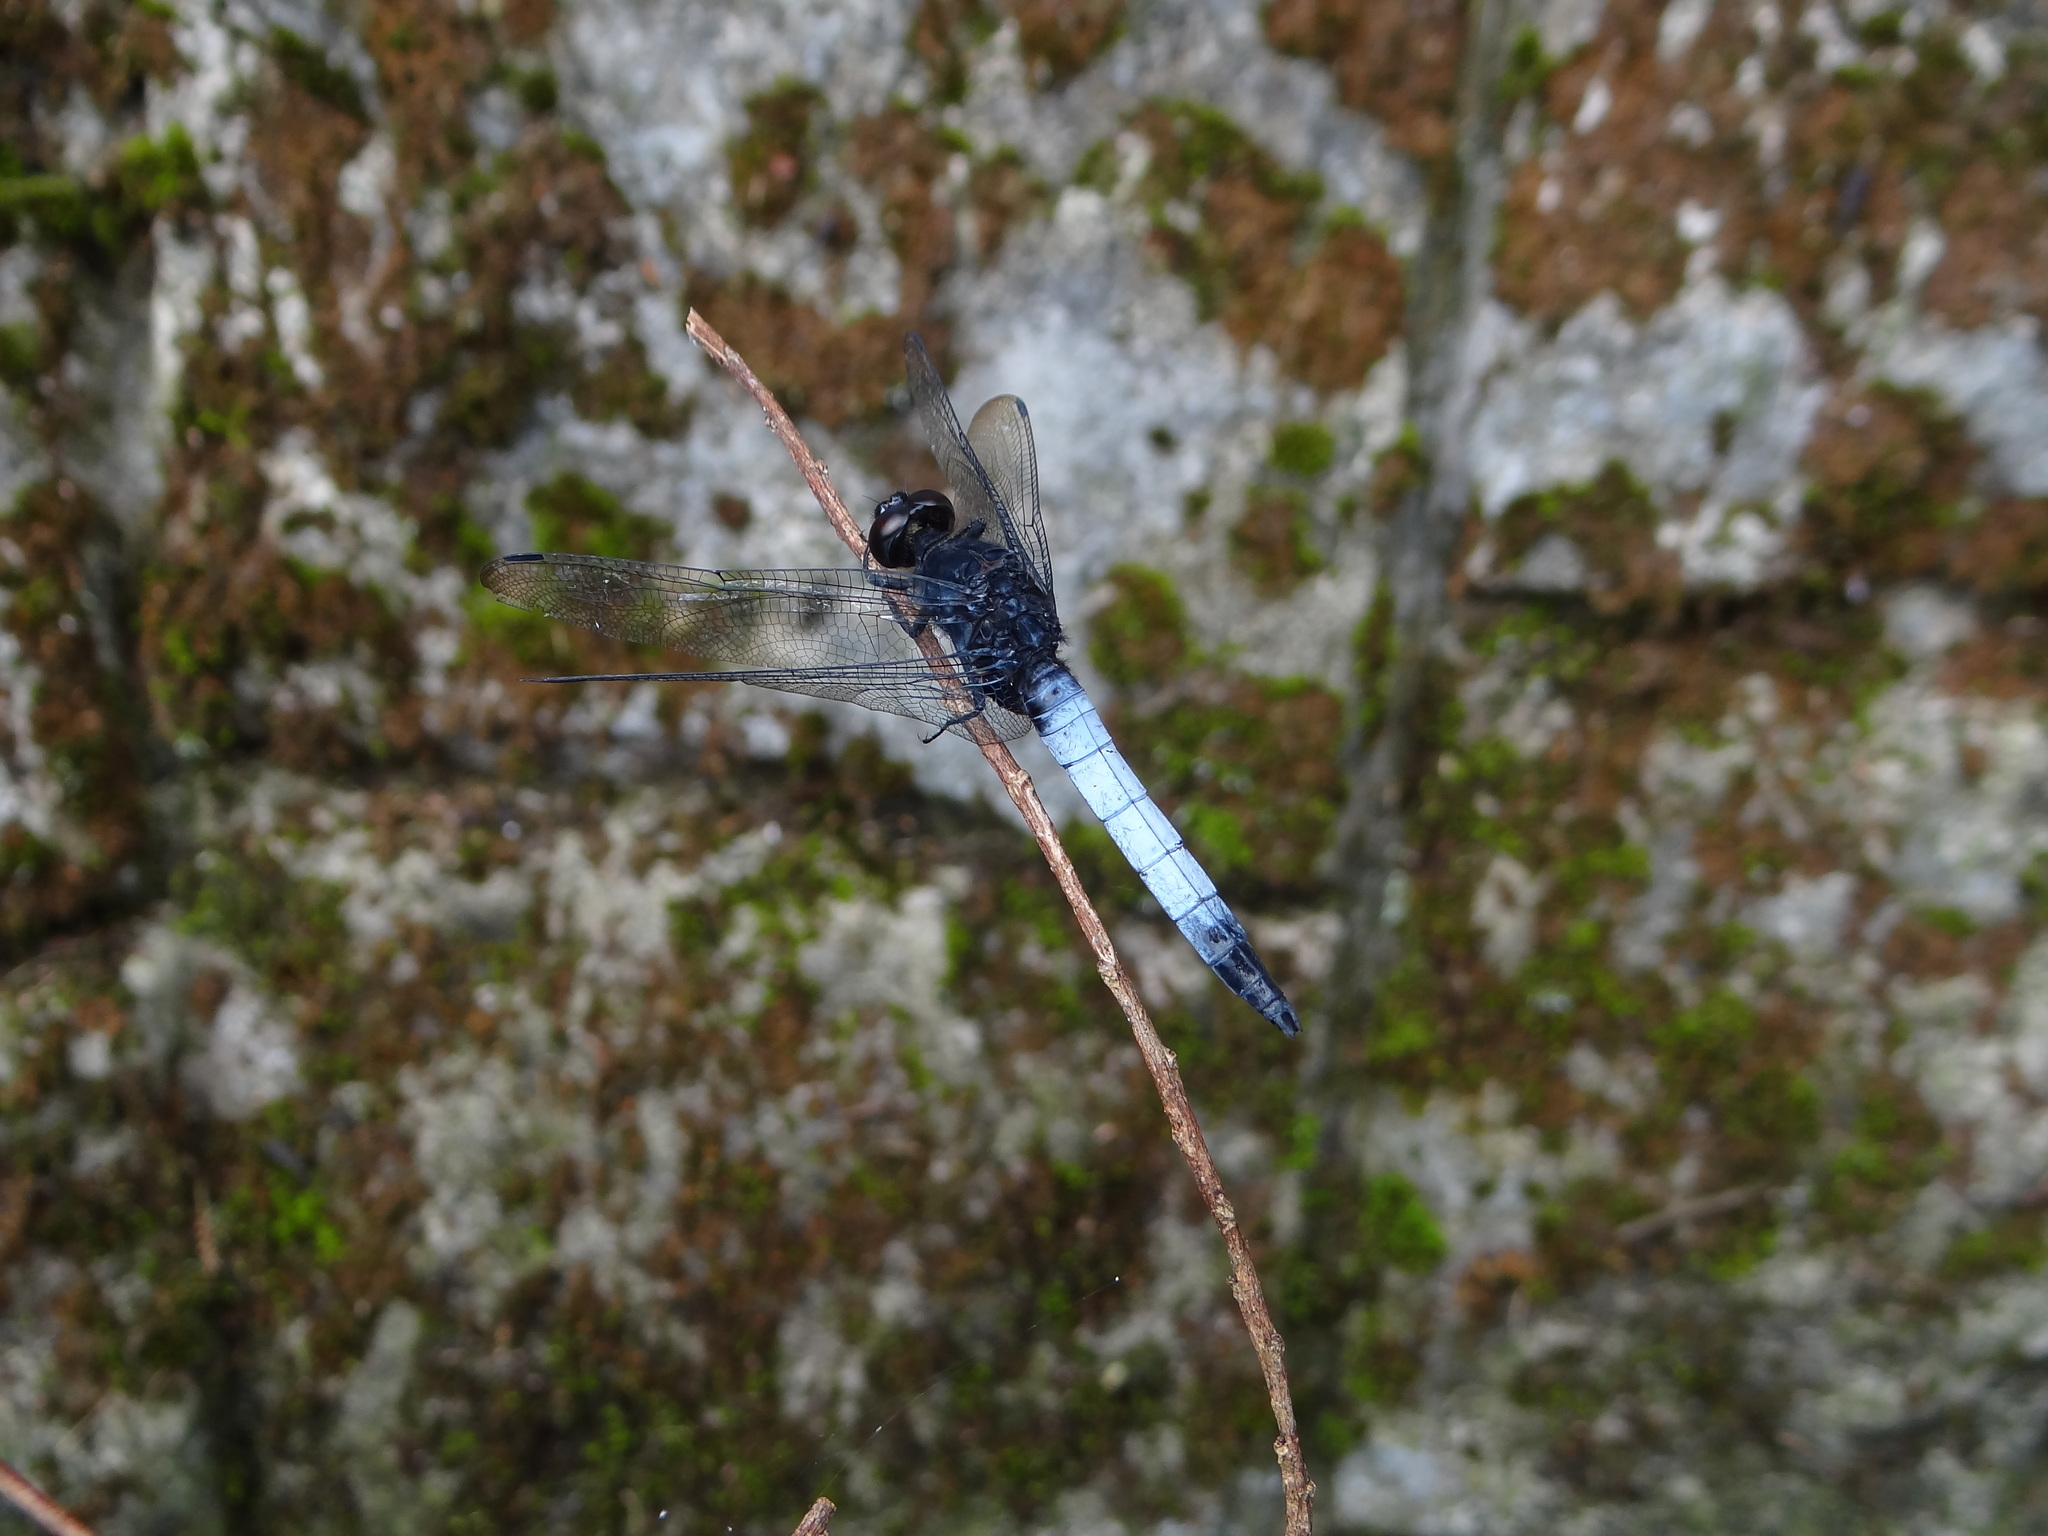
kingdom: Animalia
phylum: Arthropoda
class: Insecta
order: Odonata
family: Libellulidae
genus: Orthetrum
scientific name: Orthetrum triangulare
